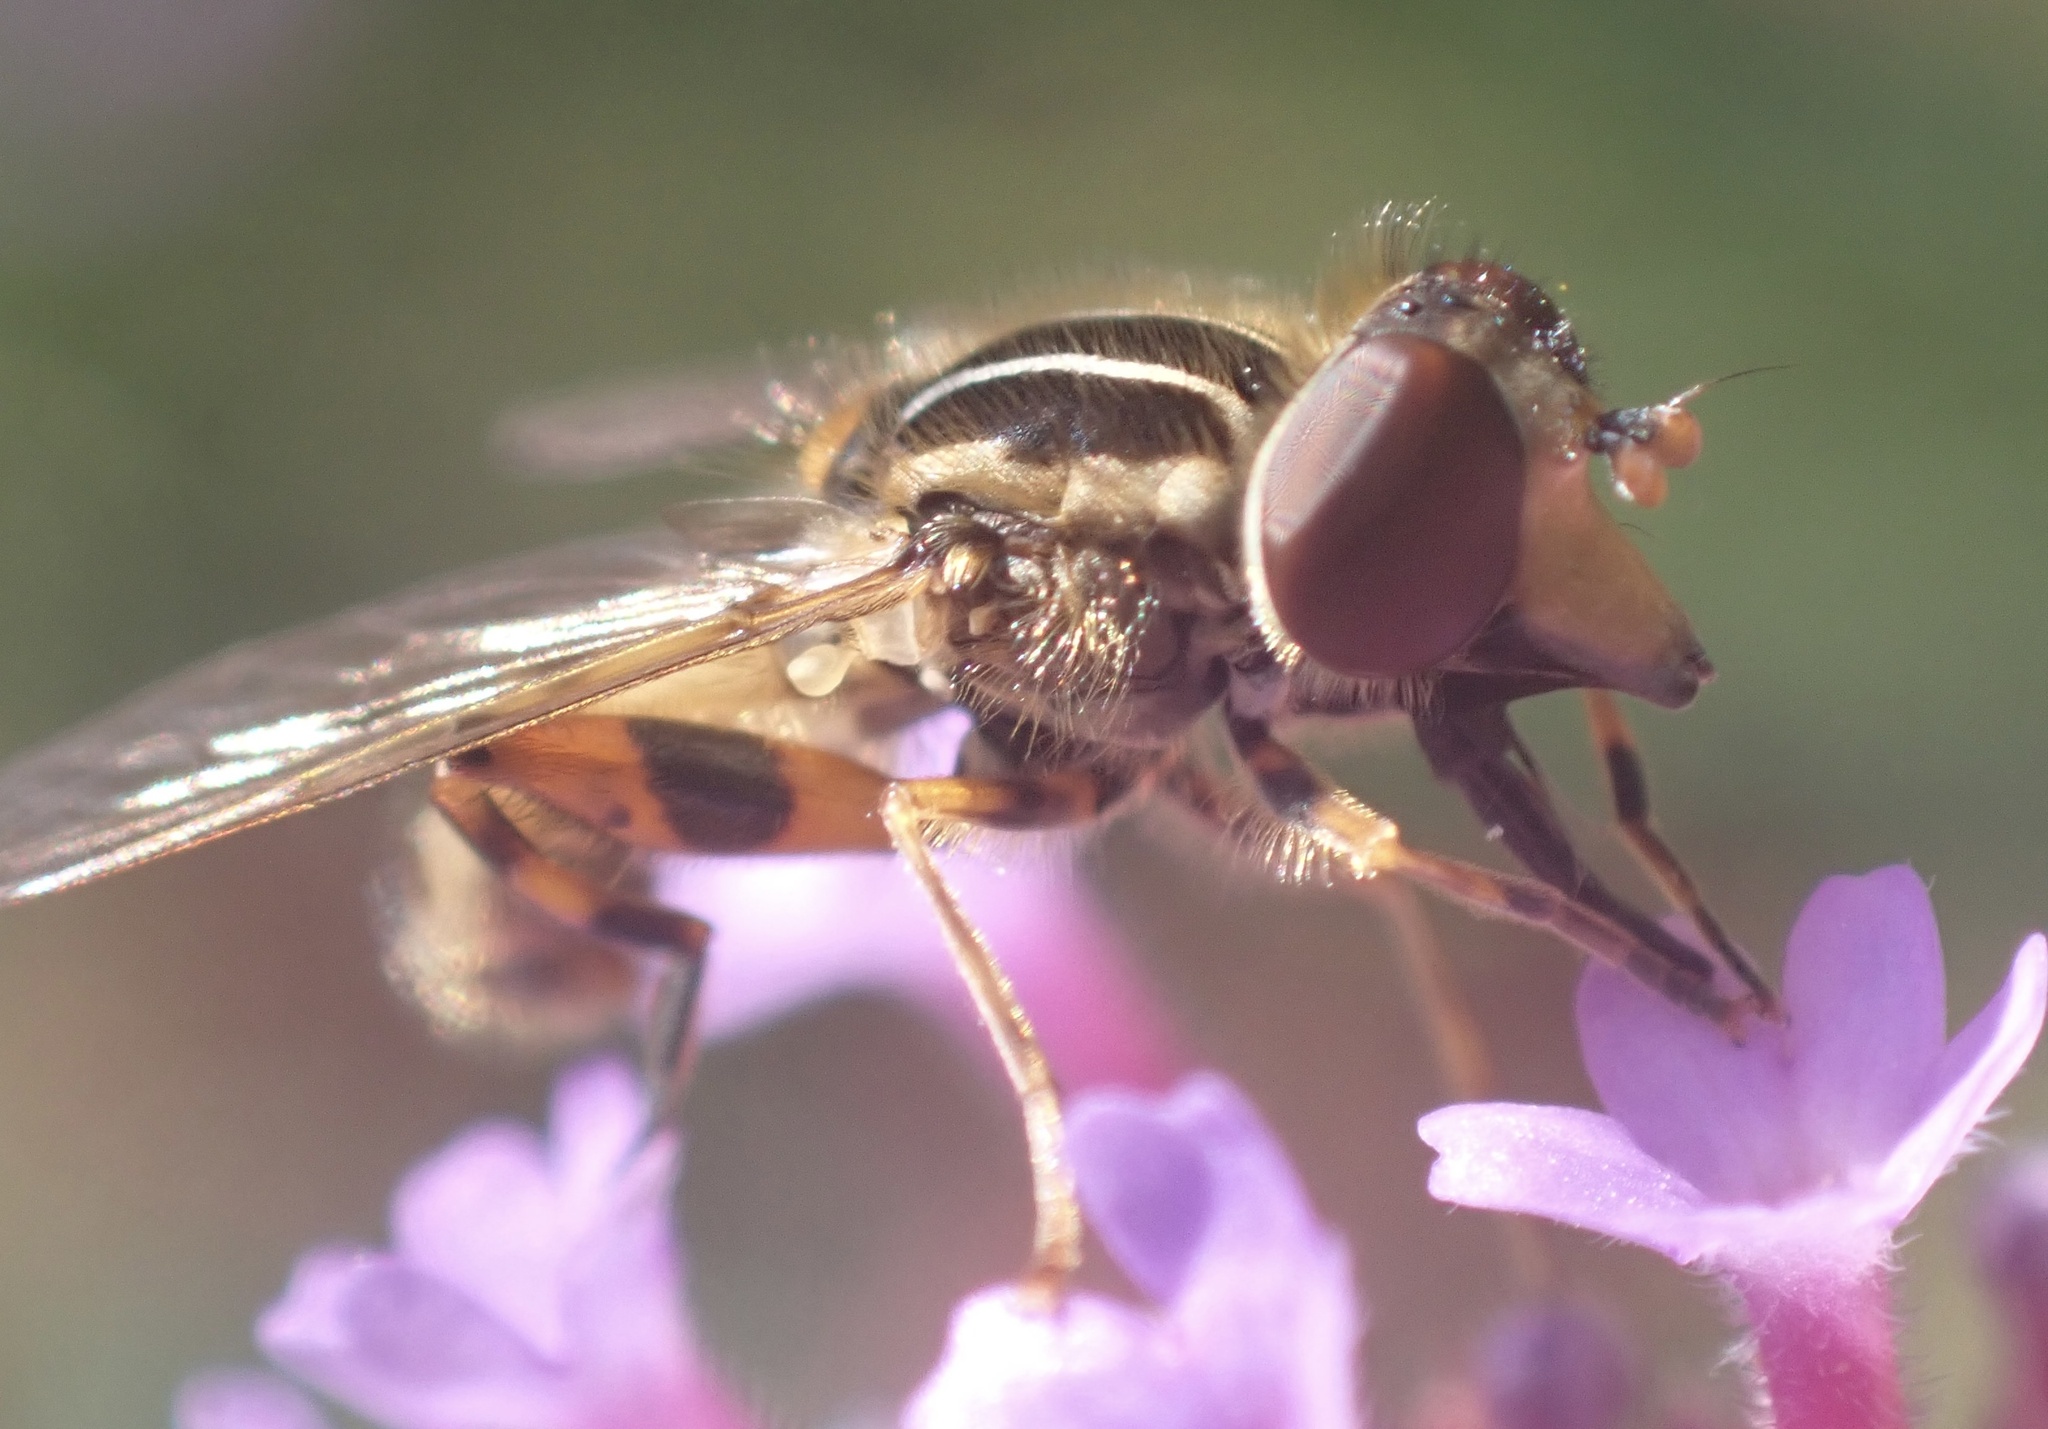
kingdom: Animalia
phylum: Arthropoda
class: Insecta
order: Diptera
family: Syrphidae
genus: Eurimyia
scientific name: Eurimyia lineatus
